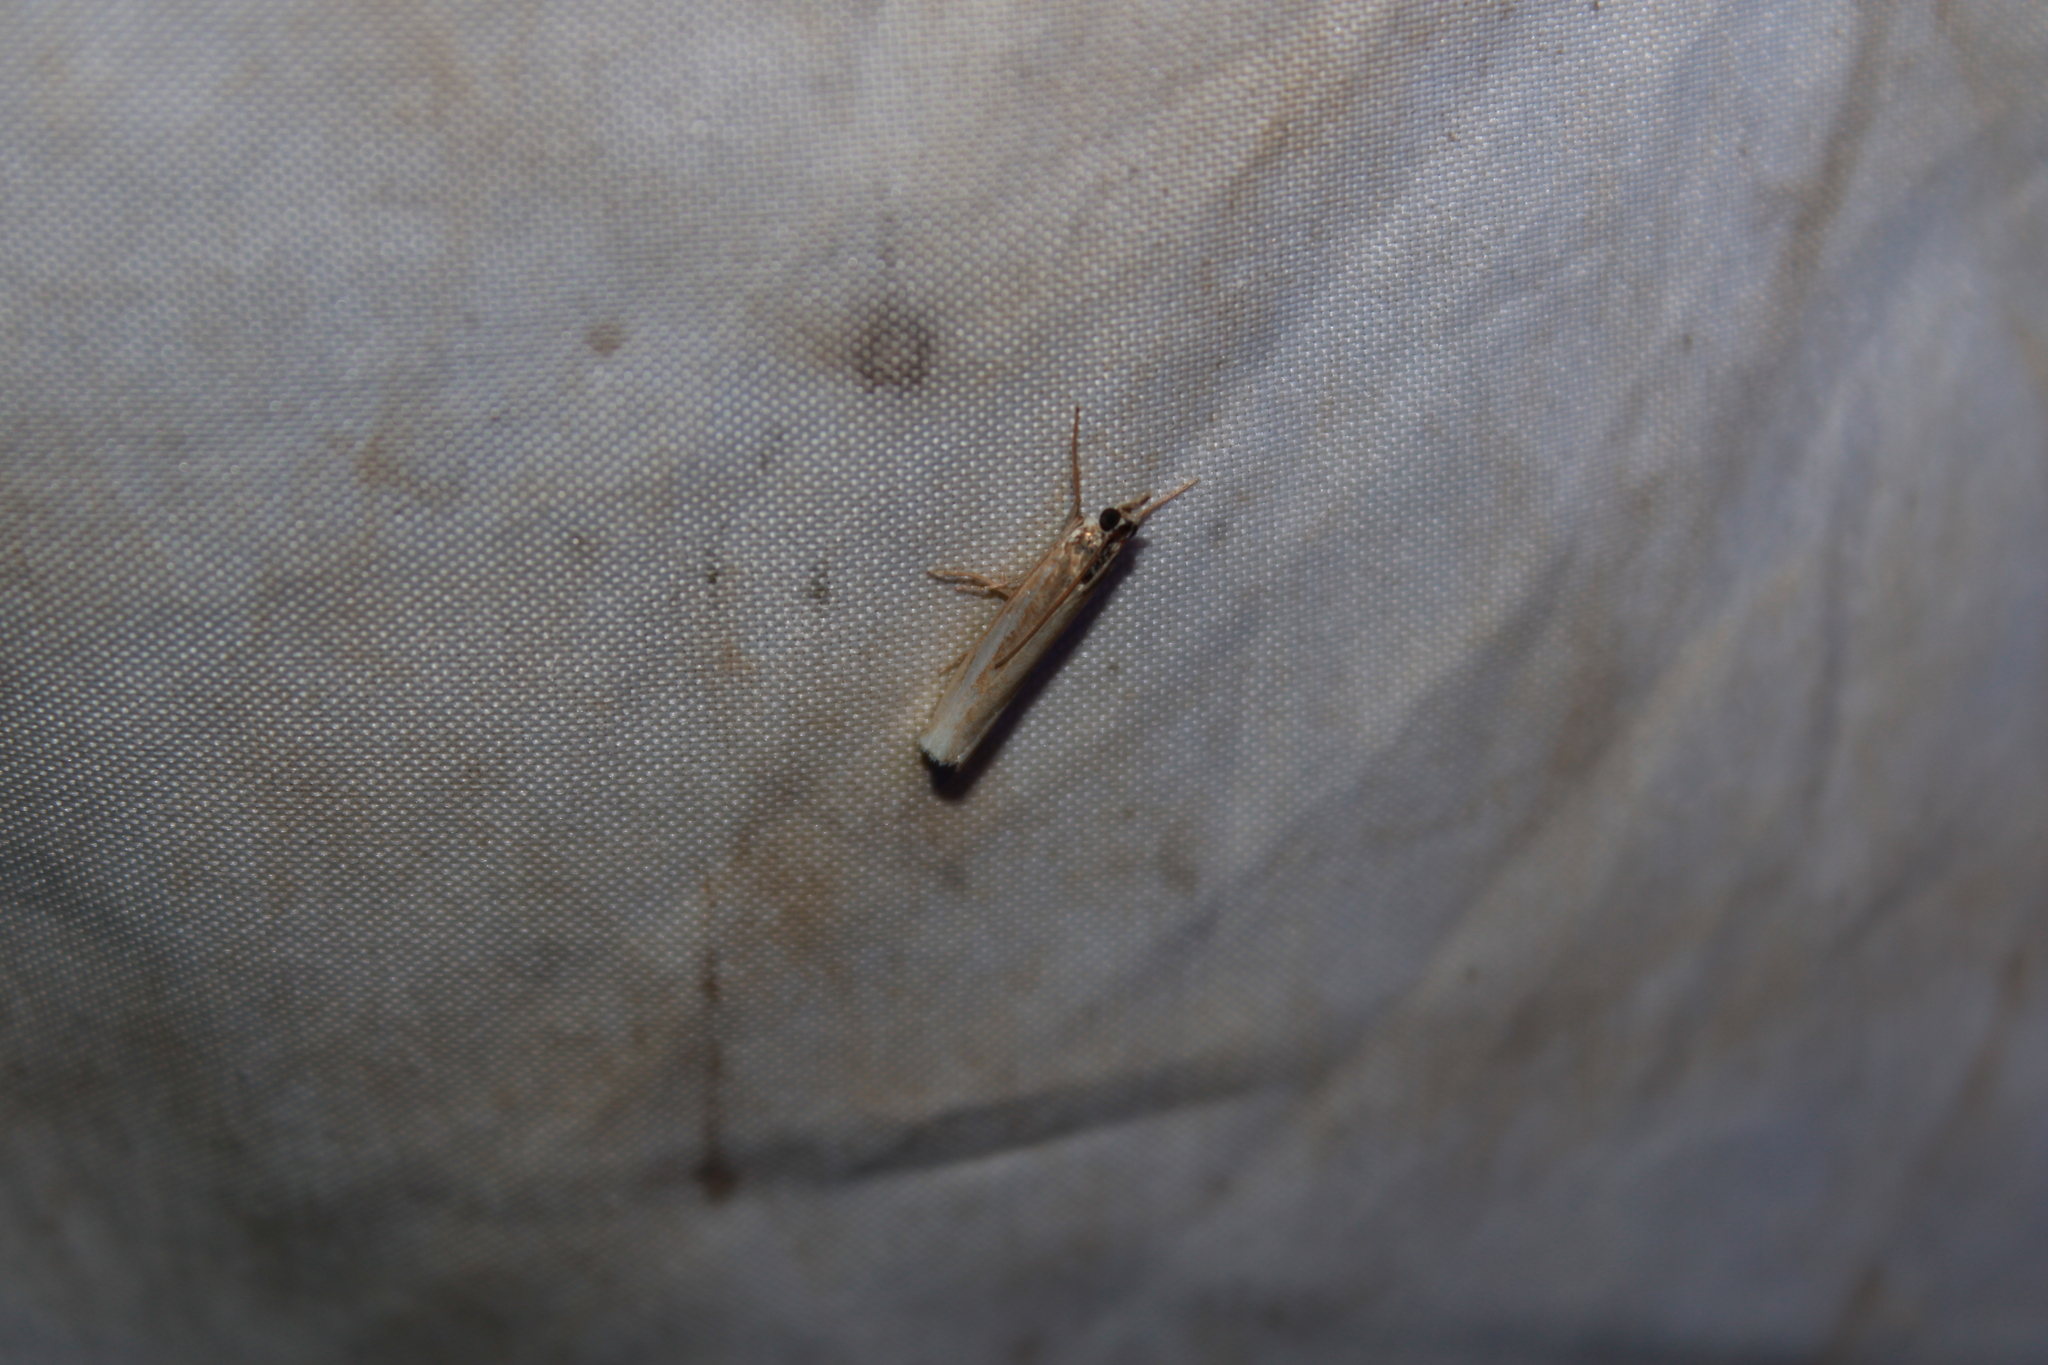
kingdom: Animalia
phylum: Arthropoda
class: Insecta
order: Lepidoptera
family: Crambidae
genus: Crambus
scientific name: Crambus
